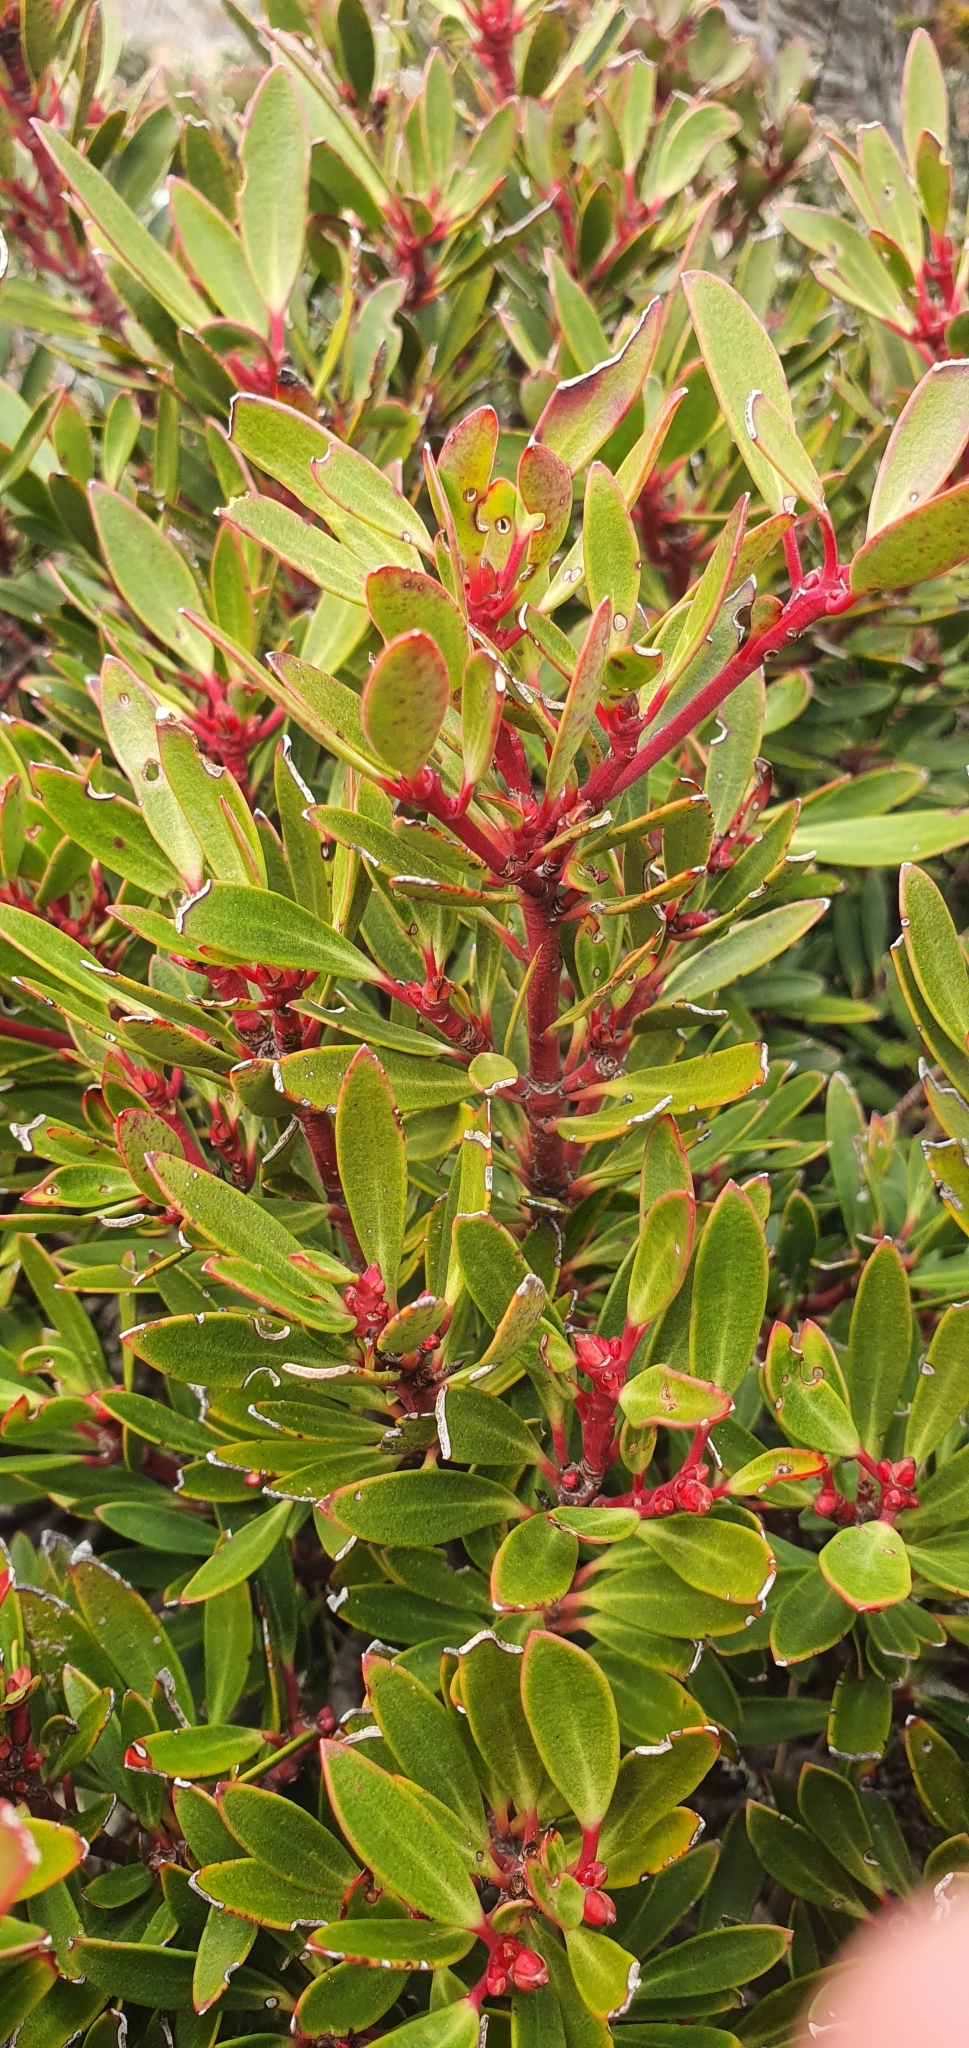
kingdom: Plantae
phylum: Tracheophyta
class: Magnoliopsida
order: Canellales
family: Winteraceae
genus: Drimys
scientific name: Drimys aromatica
